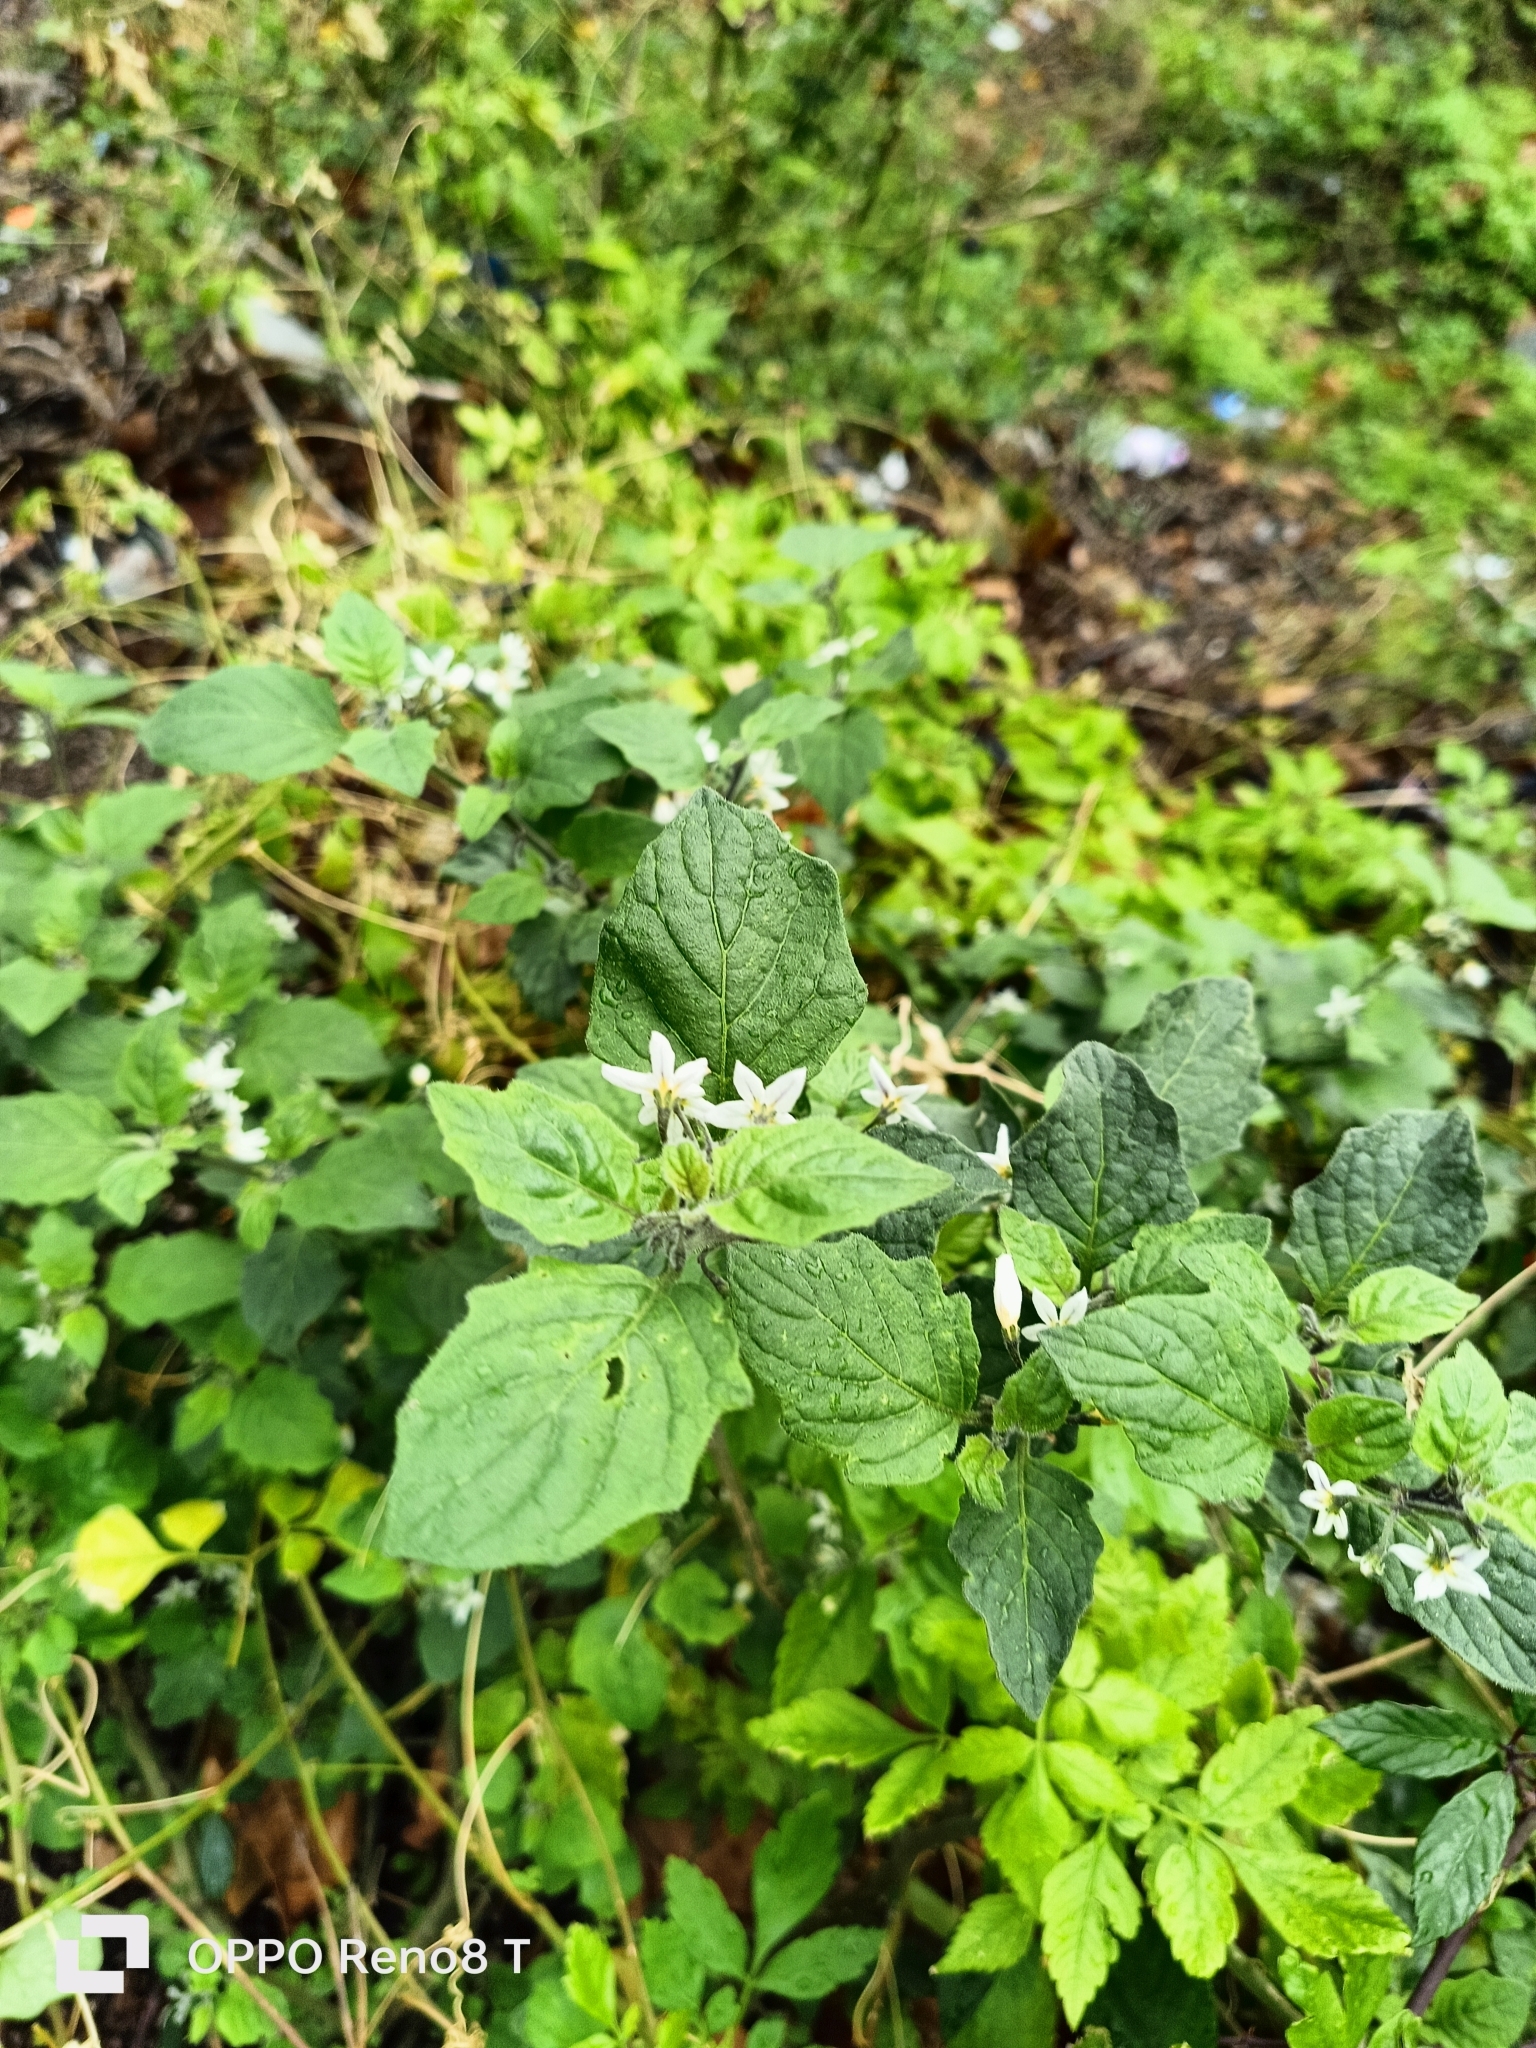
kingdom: Plantae
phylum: Tracheophyta
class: Magnoliopsida
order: Solanales
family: Solanaceae
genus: Solanum
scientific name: Solanum villosum
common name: Red nightshade
